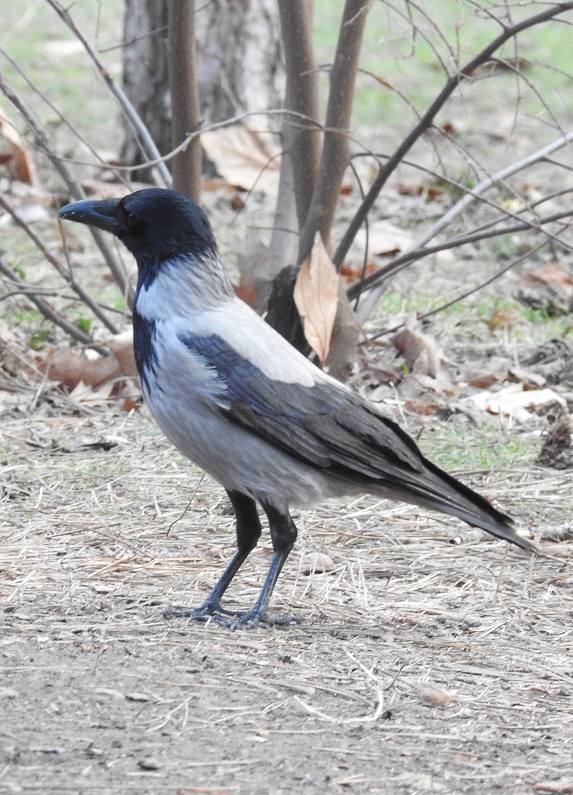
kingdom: Animalia
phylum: Chordata
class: Aves
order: Passeriformes
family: Corvidae
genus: Corvus
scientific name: Corvus cornix
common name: Hooded crow
